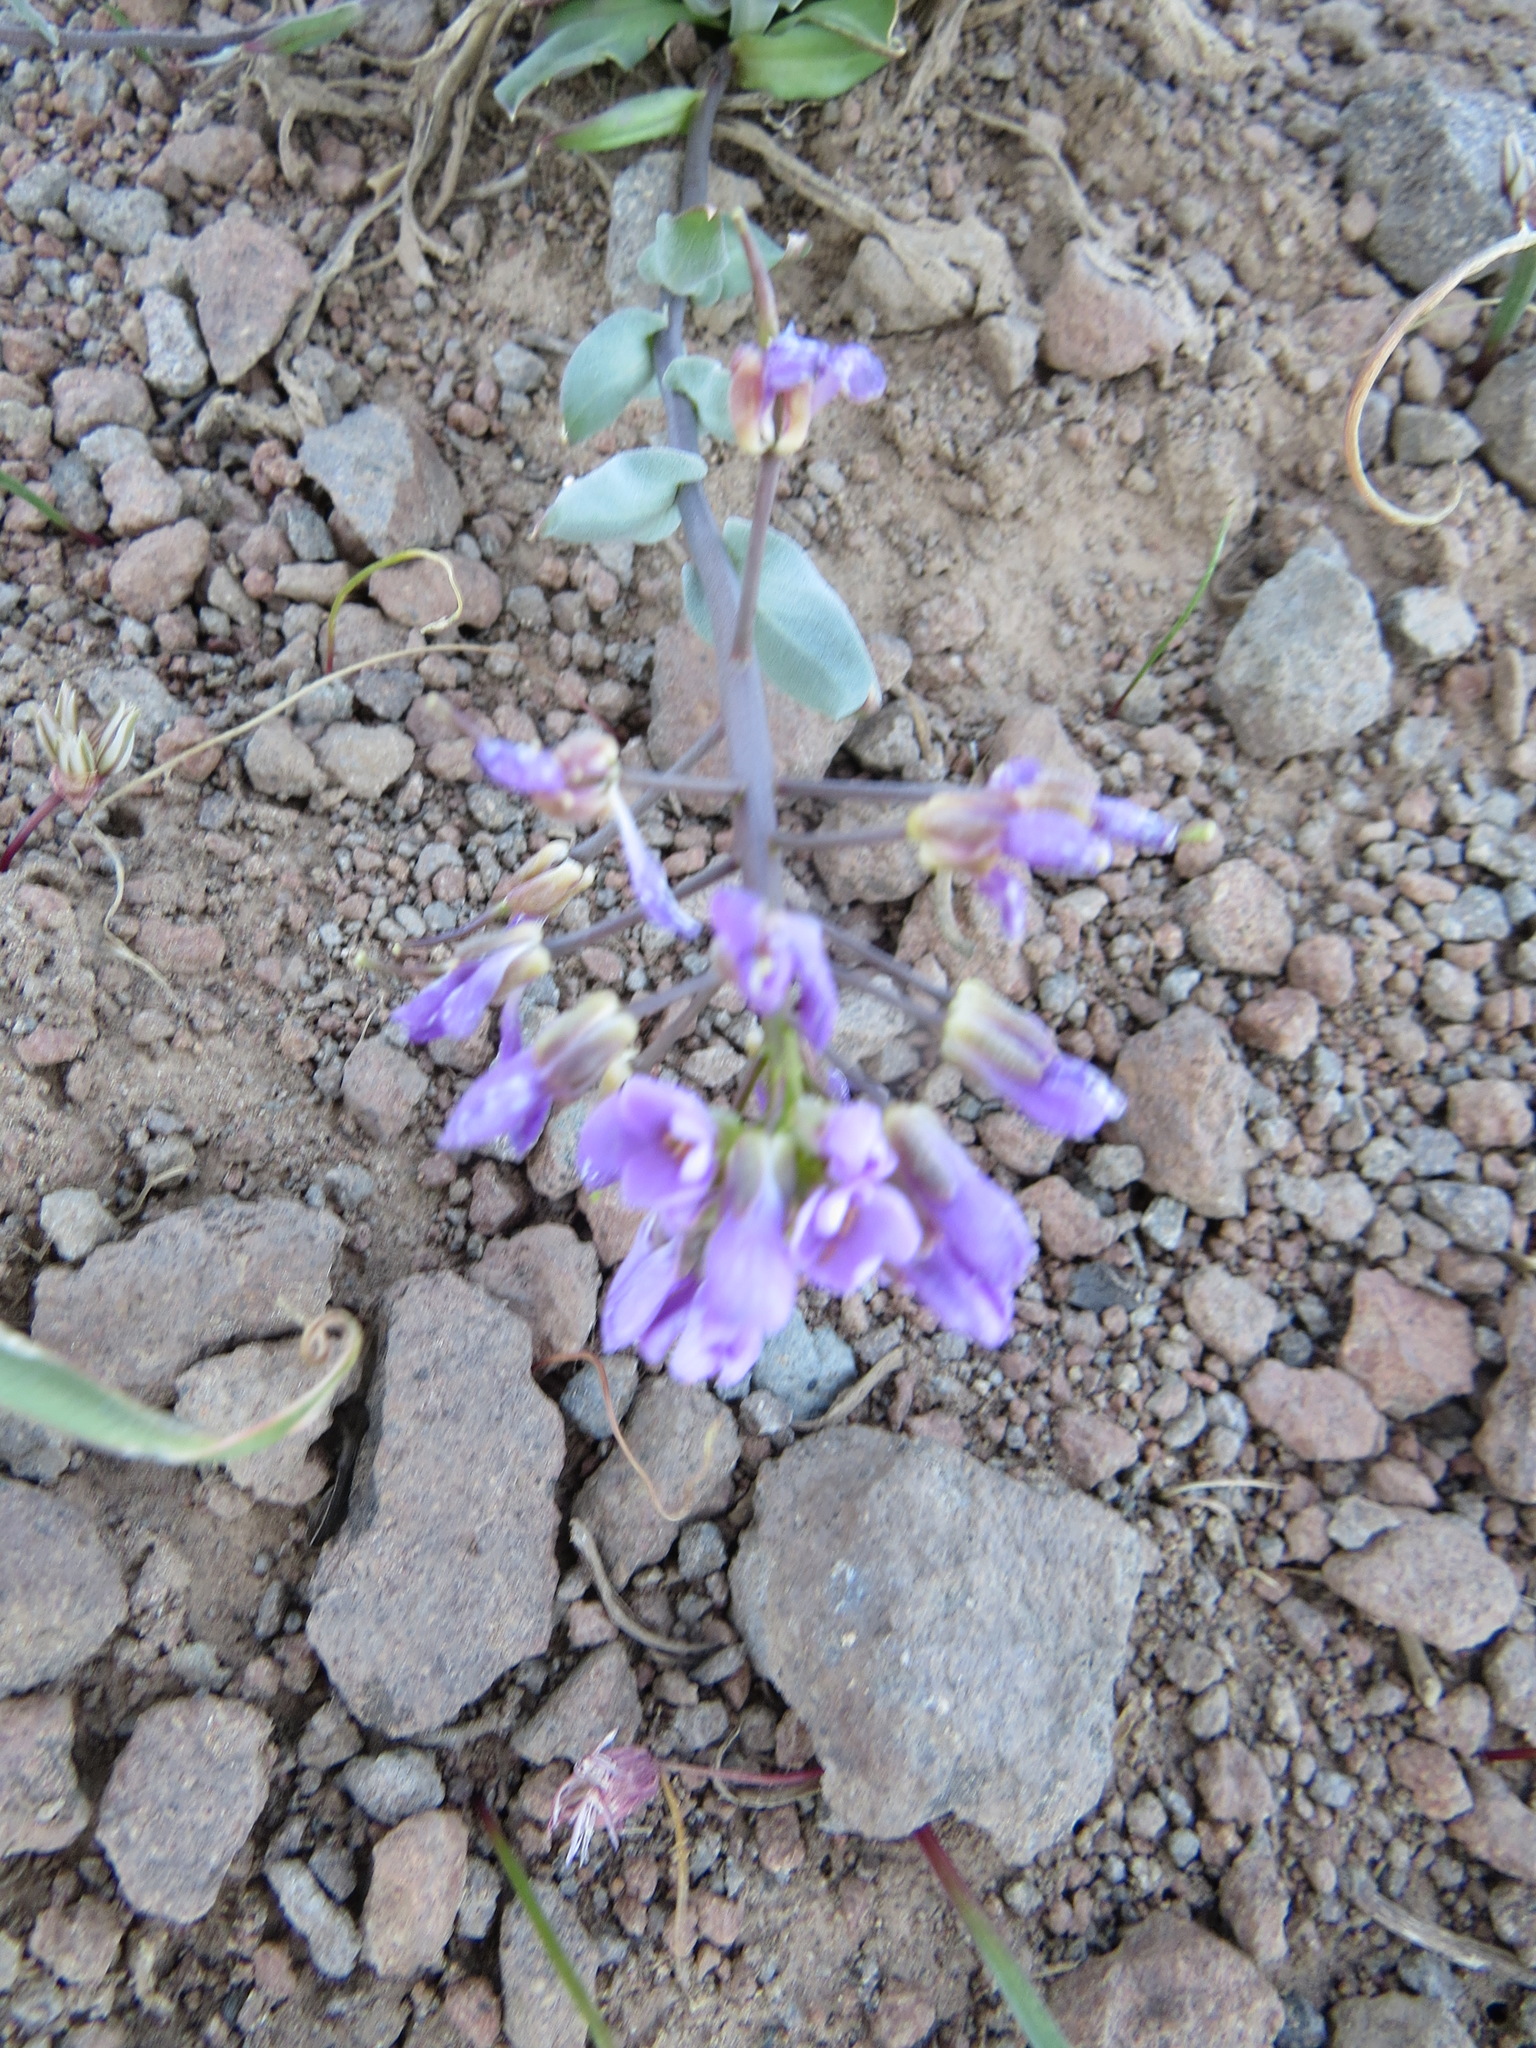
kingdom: Plantae
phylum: Tracheophyta
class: Magnoliopsida
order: Brassicales
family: Brassicaceae
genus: Phoenicaulis
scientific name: Phoenicaulis cheiranthoides
